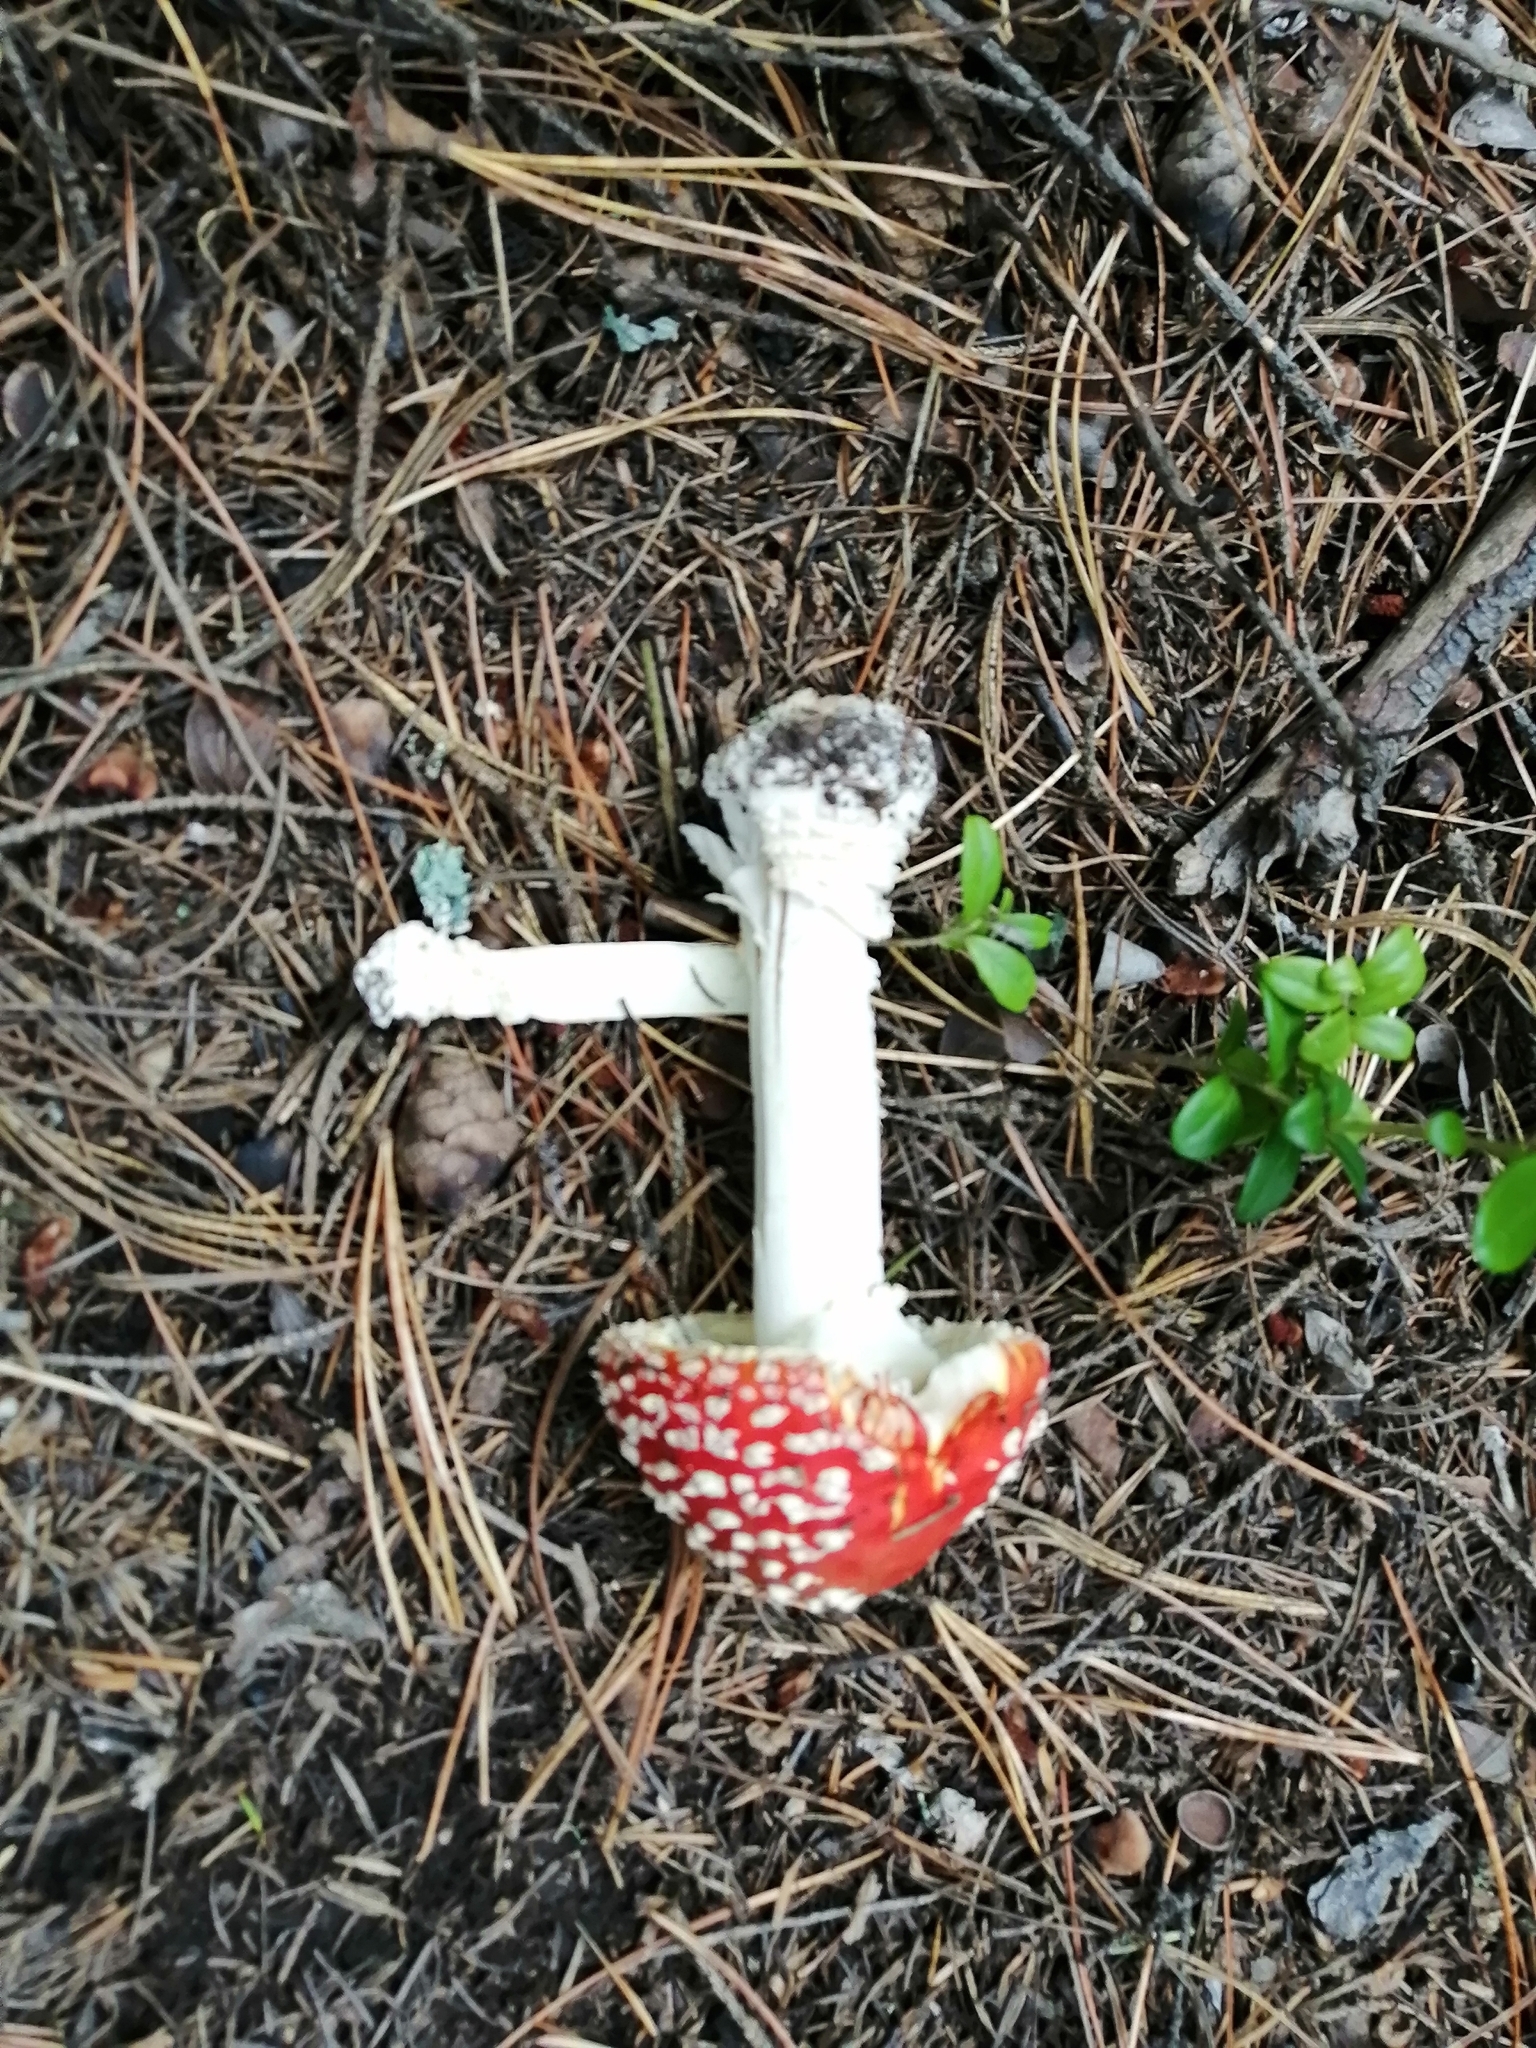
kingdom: Fungi
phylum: Basidiomycota
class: Agaricomycetes
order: Agaricales
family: Amanitaceae
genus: Amanita
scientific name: Amanita muscaria
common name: Fly agaric
